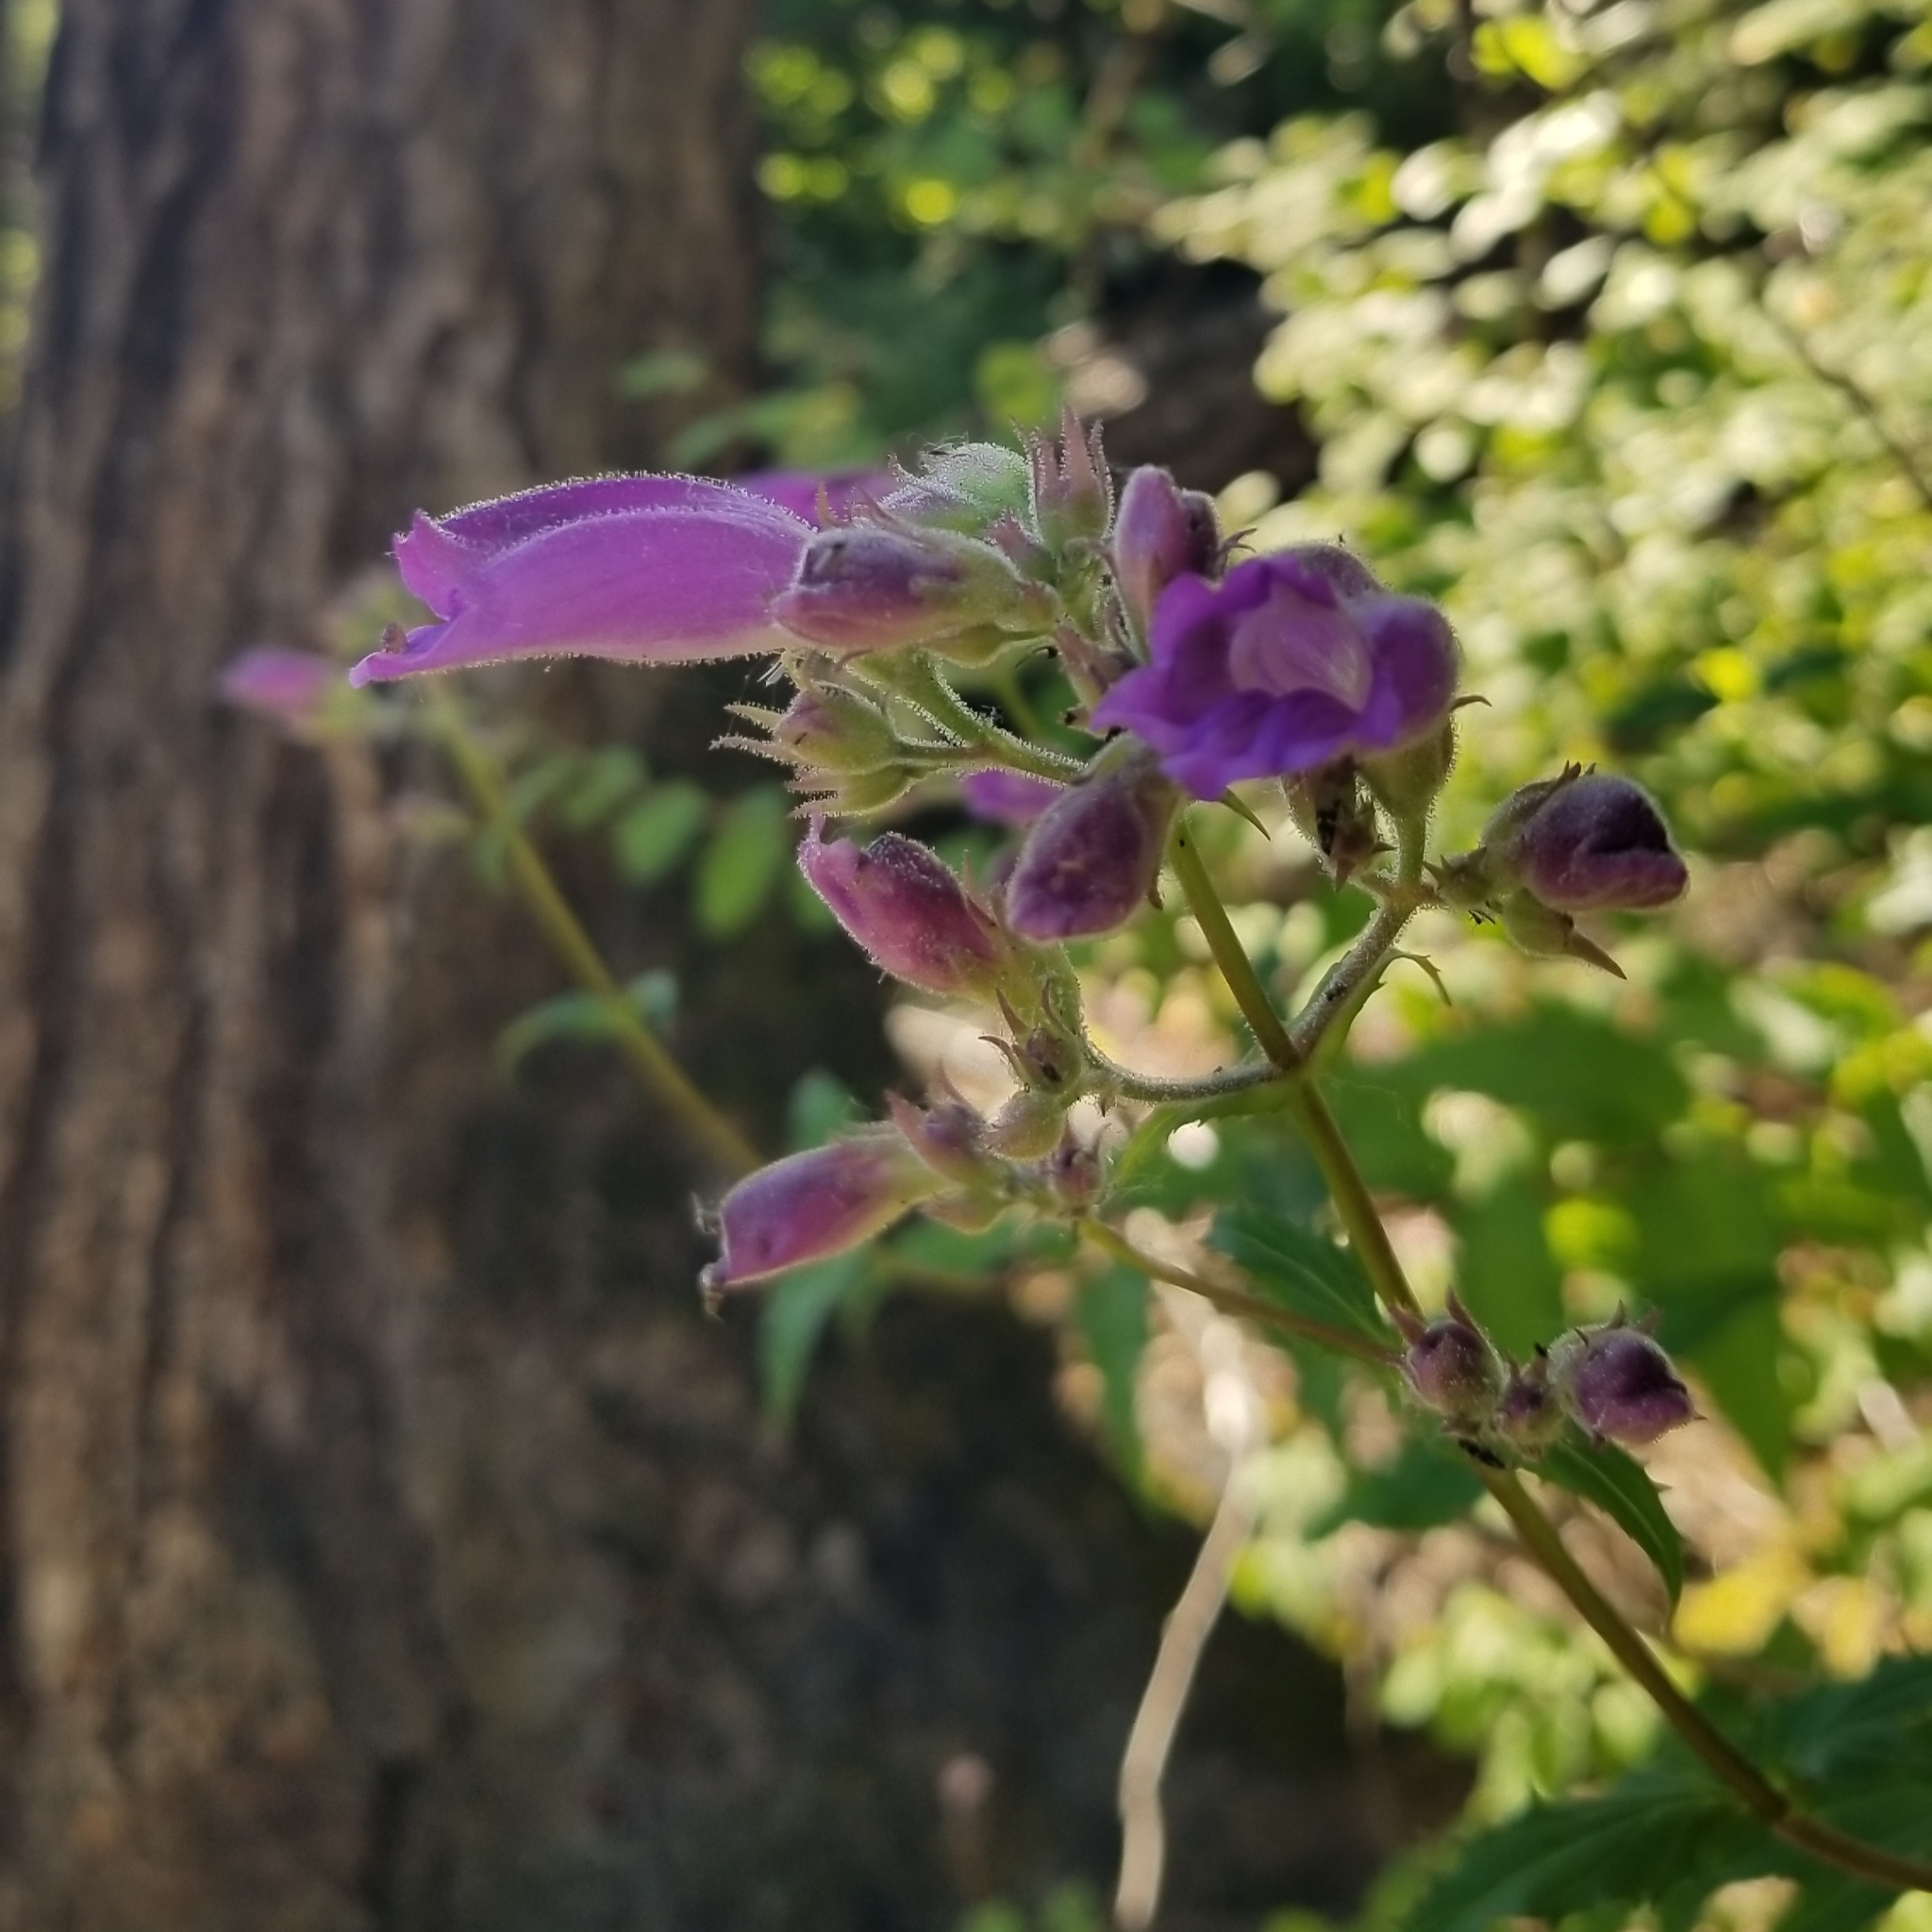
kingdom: Plantae
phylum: Tracheophyta
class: Magnoliopsida
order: Lamiales
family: Plantaginaceae
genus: Nothochelone
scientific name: Nothochelone nemorosa
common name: Woodland beardtongue
